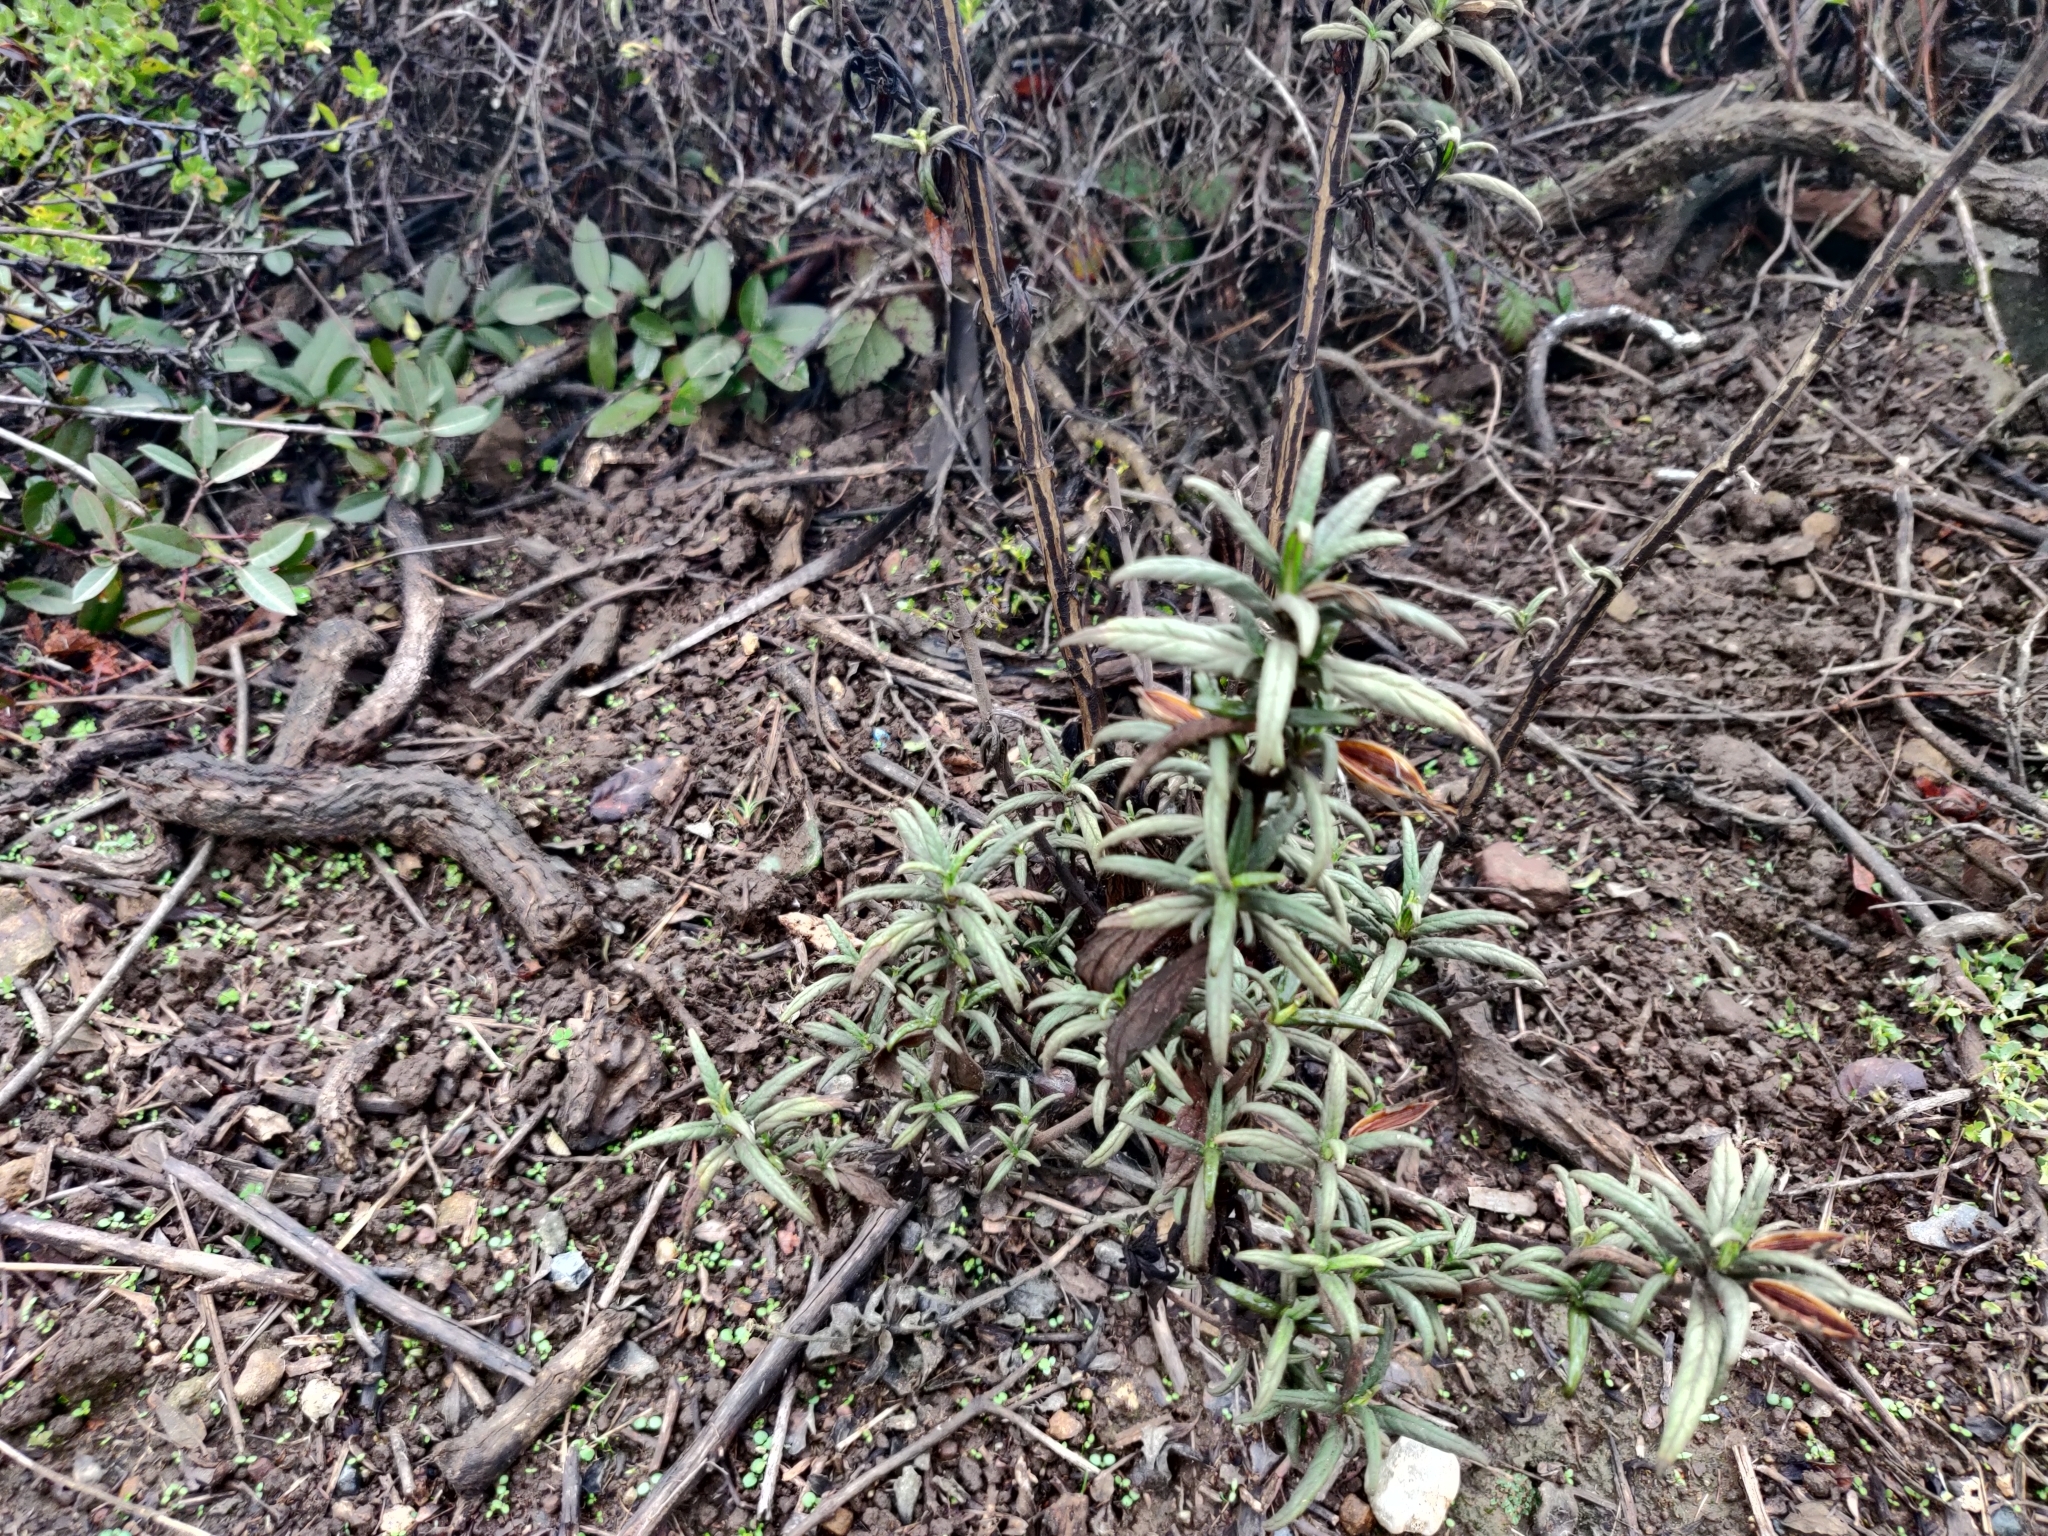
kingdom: Plantae
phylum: Tracheophyta
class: Magnoliopsida
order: Lamiales
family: Phrymaceae
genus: Diplacus
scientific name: Diplacus aurantiacus
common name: Bush monkey-flower
